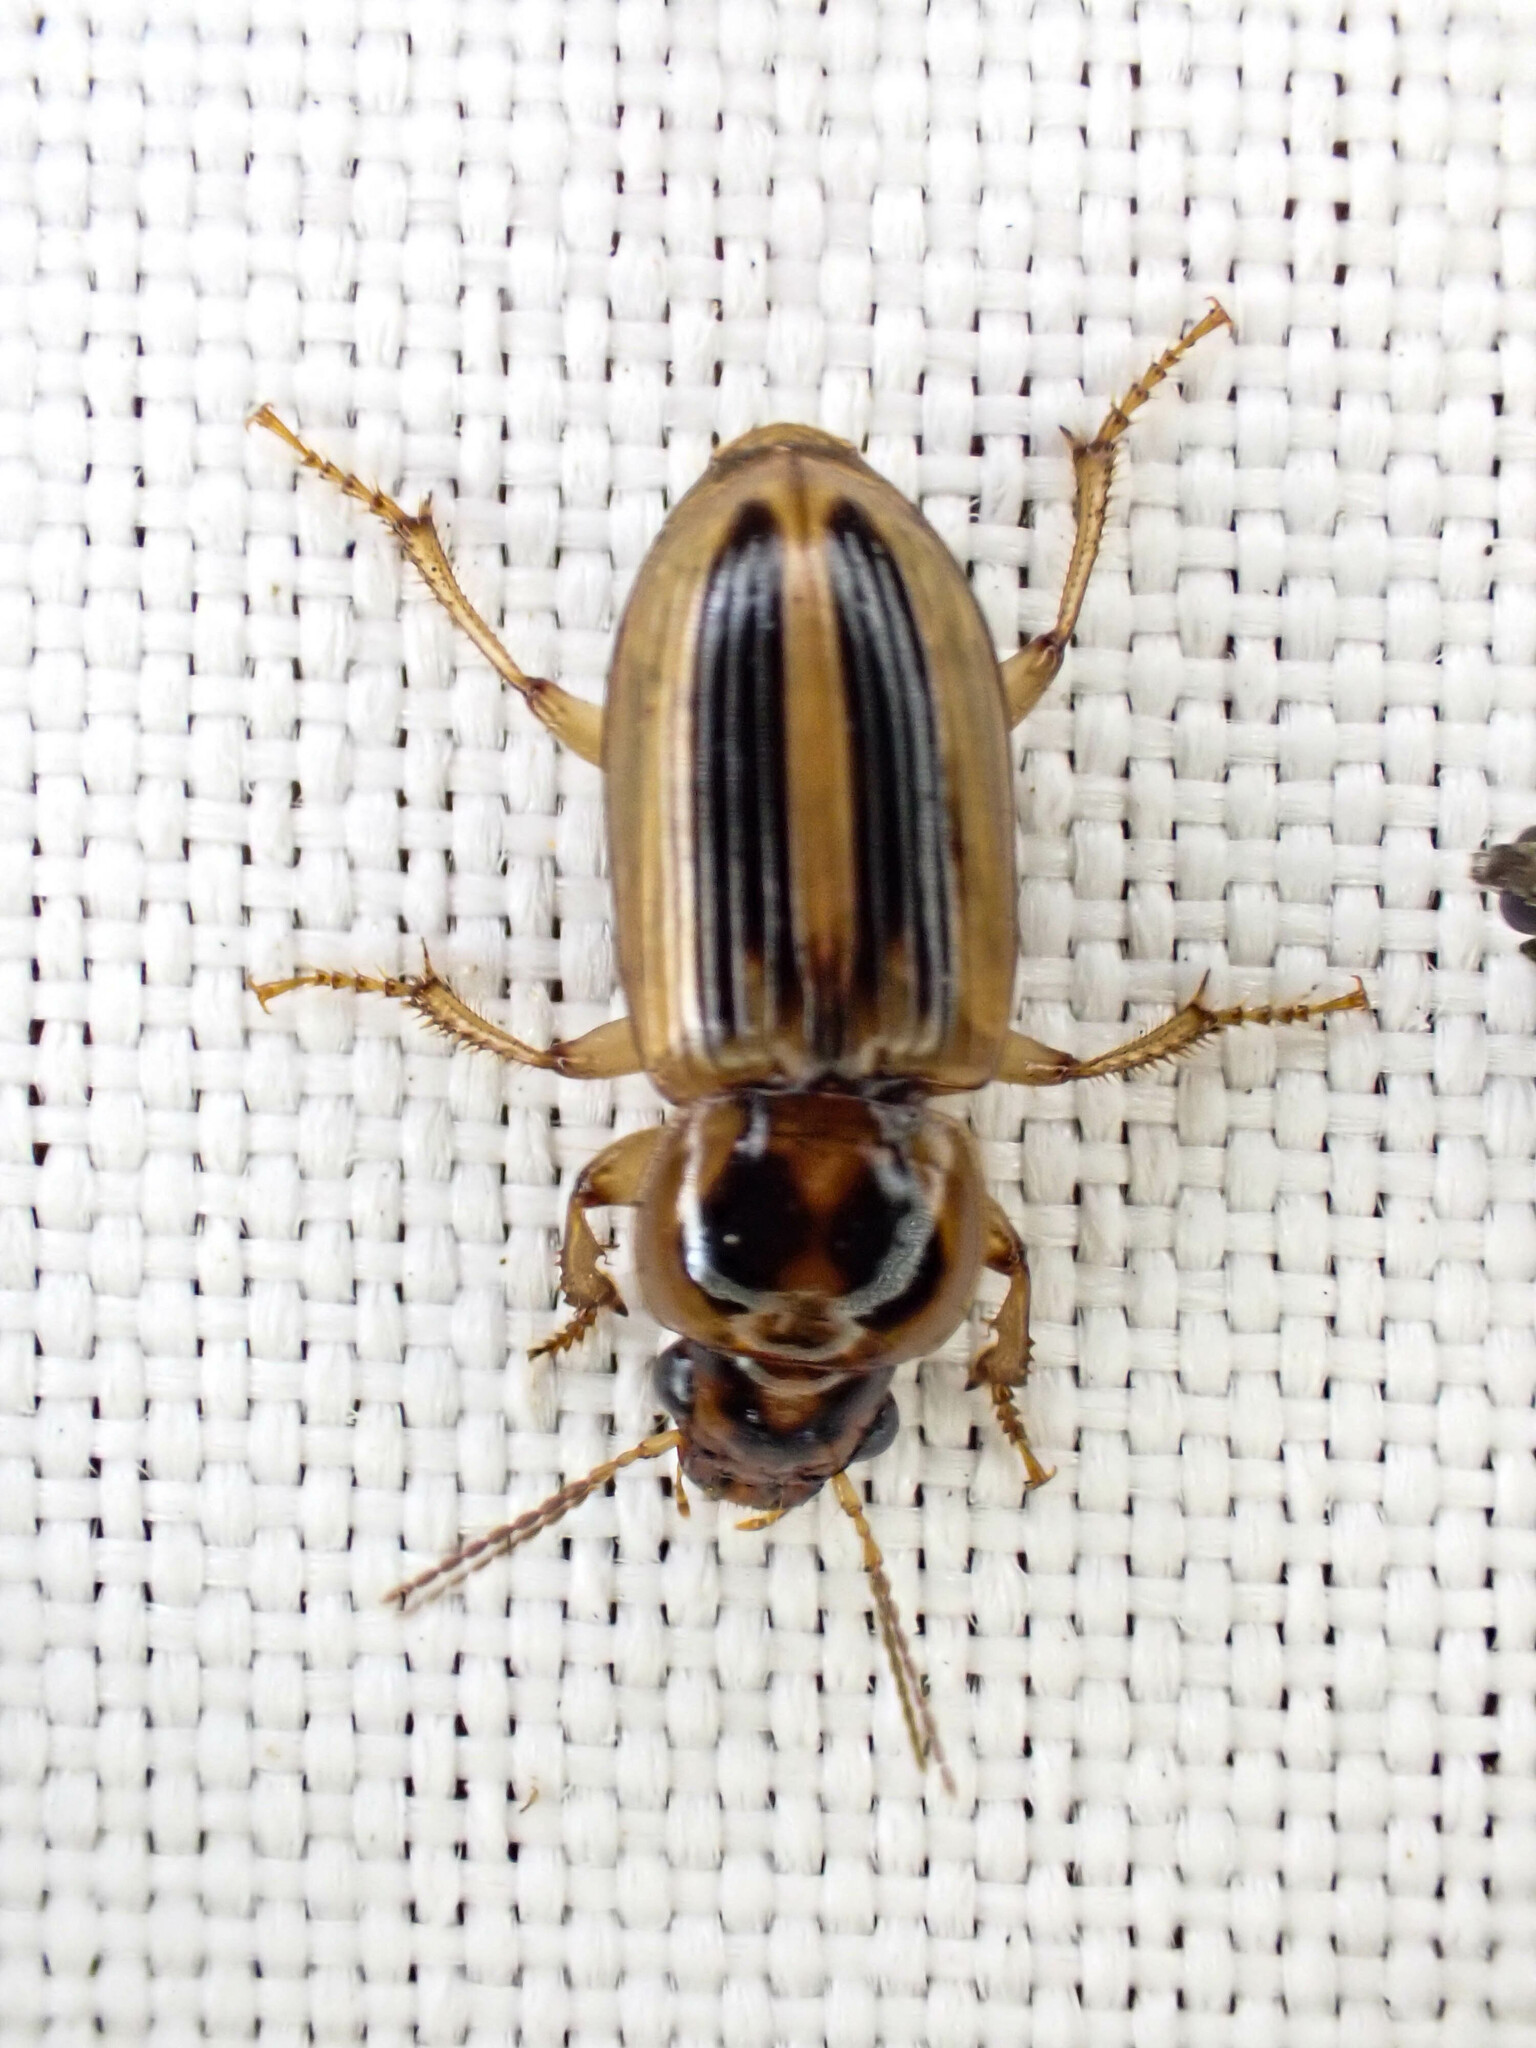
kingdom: Animalia
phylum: Arthropoda
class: Insecta
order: Coleoptera
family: Carabidae
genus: Stenolophus
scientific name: Stenolophus lineola
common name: Lined stenolophus
